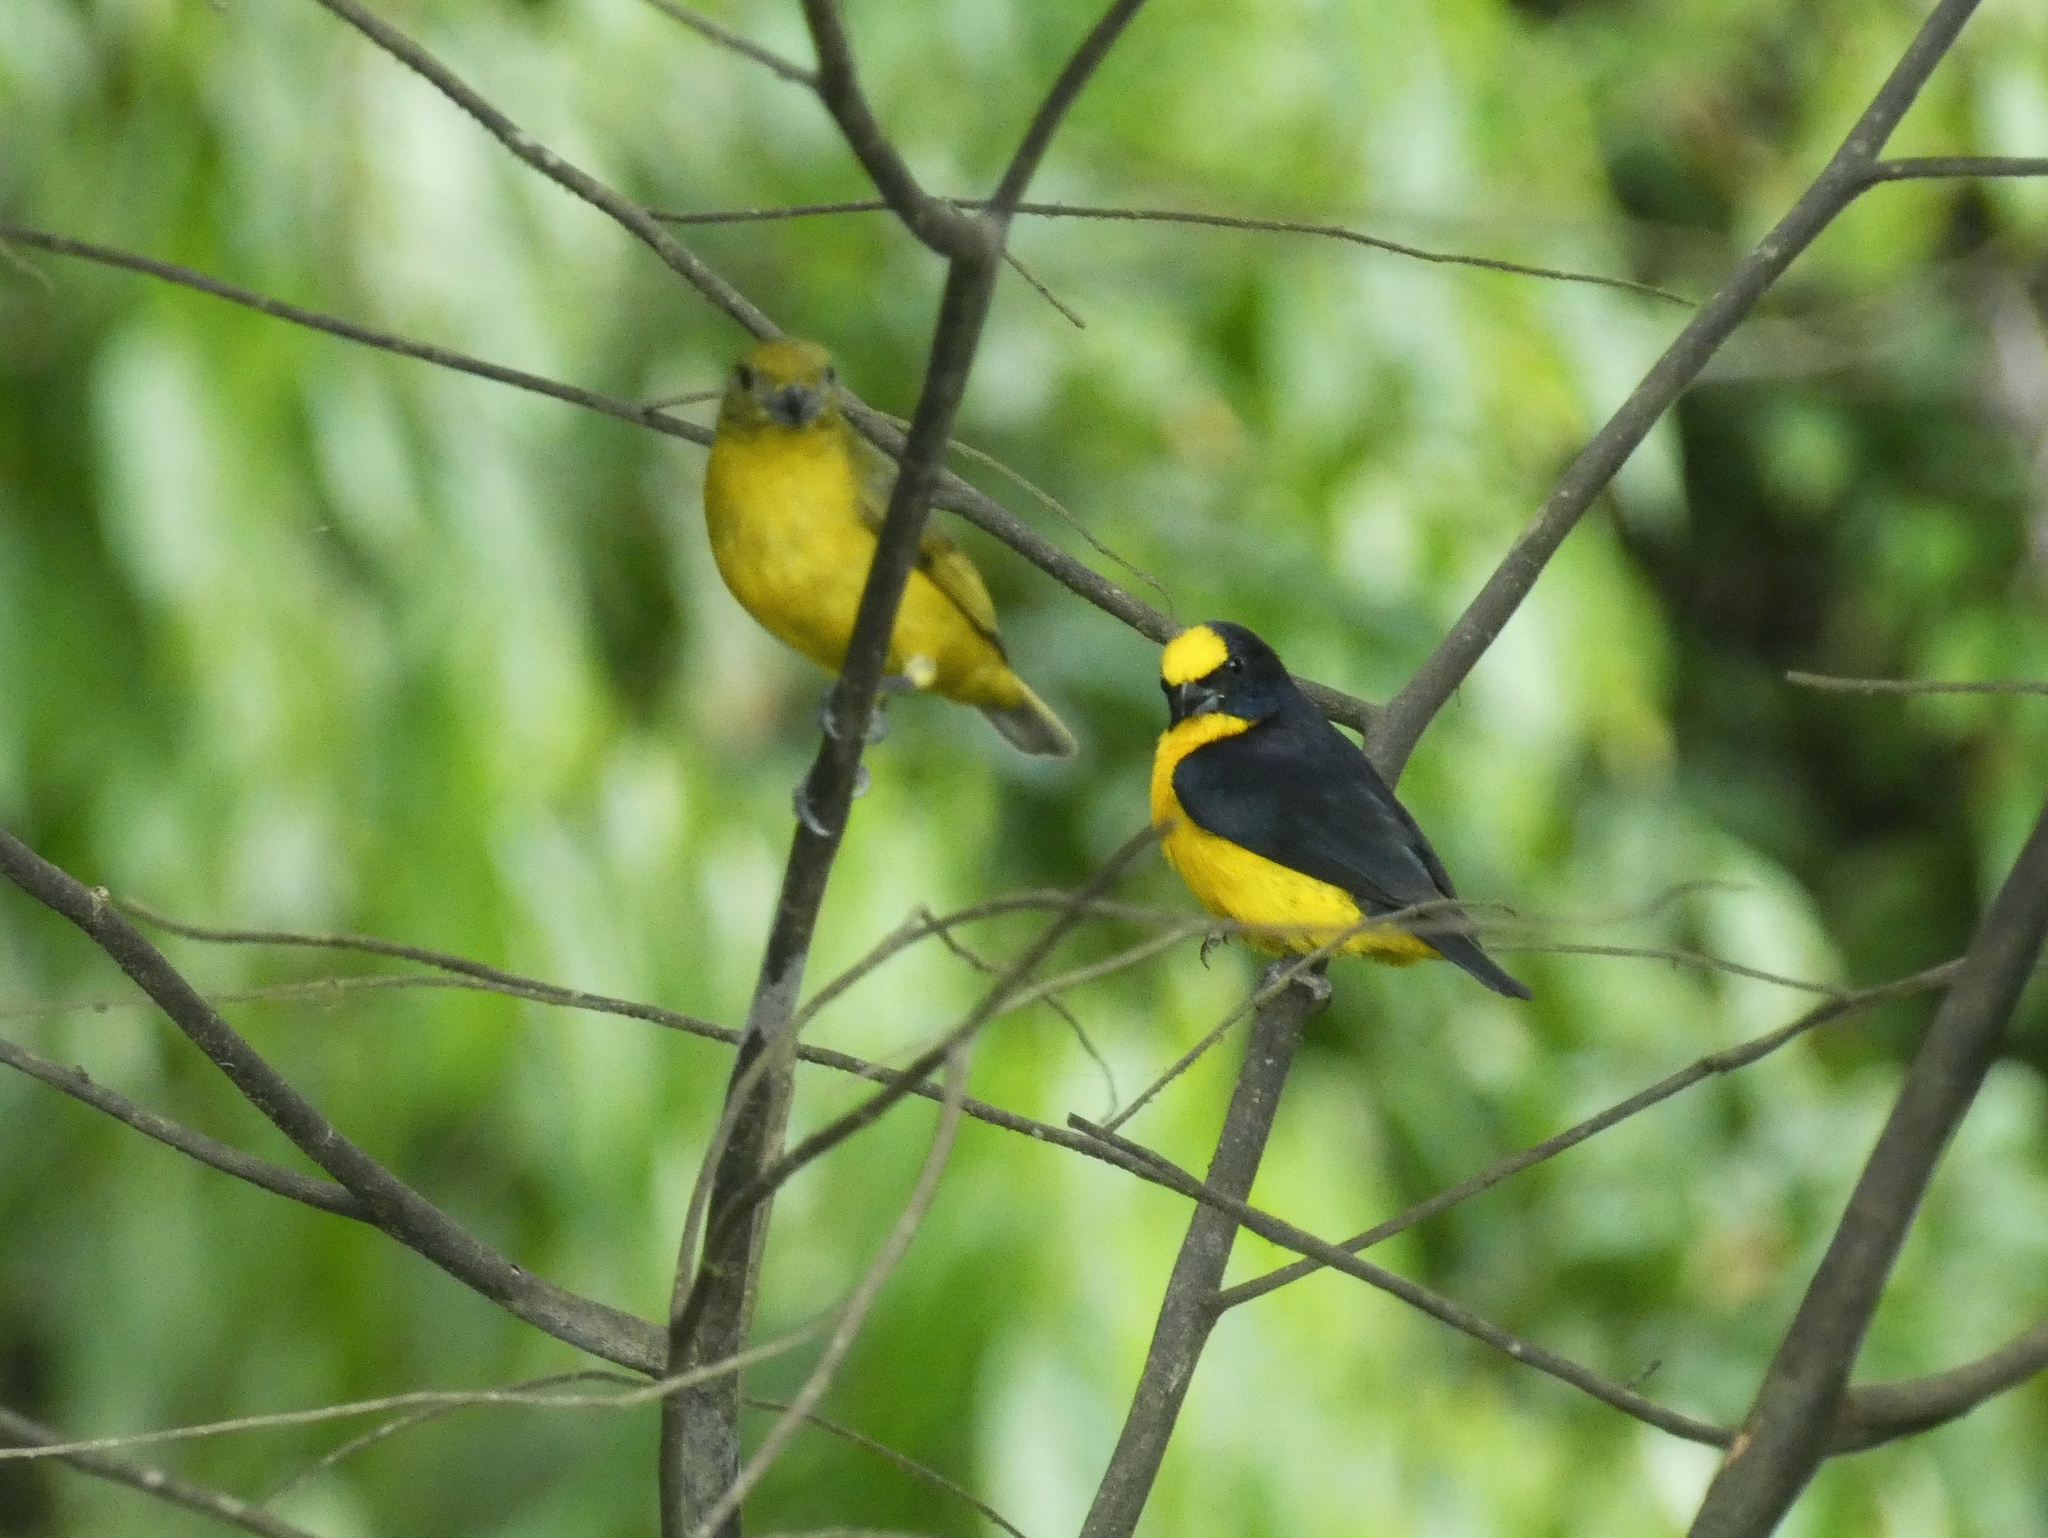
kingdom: Animalia
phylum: Chordata
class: Aves
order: Passeriformes
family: Fringillidae
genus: Euphonia
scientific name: Euphonia laniirostris
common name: Thick-billed euphonia
